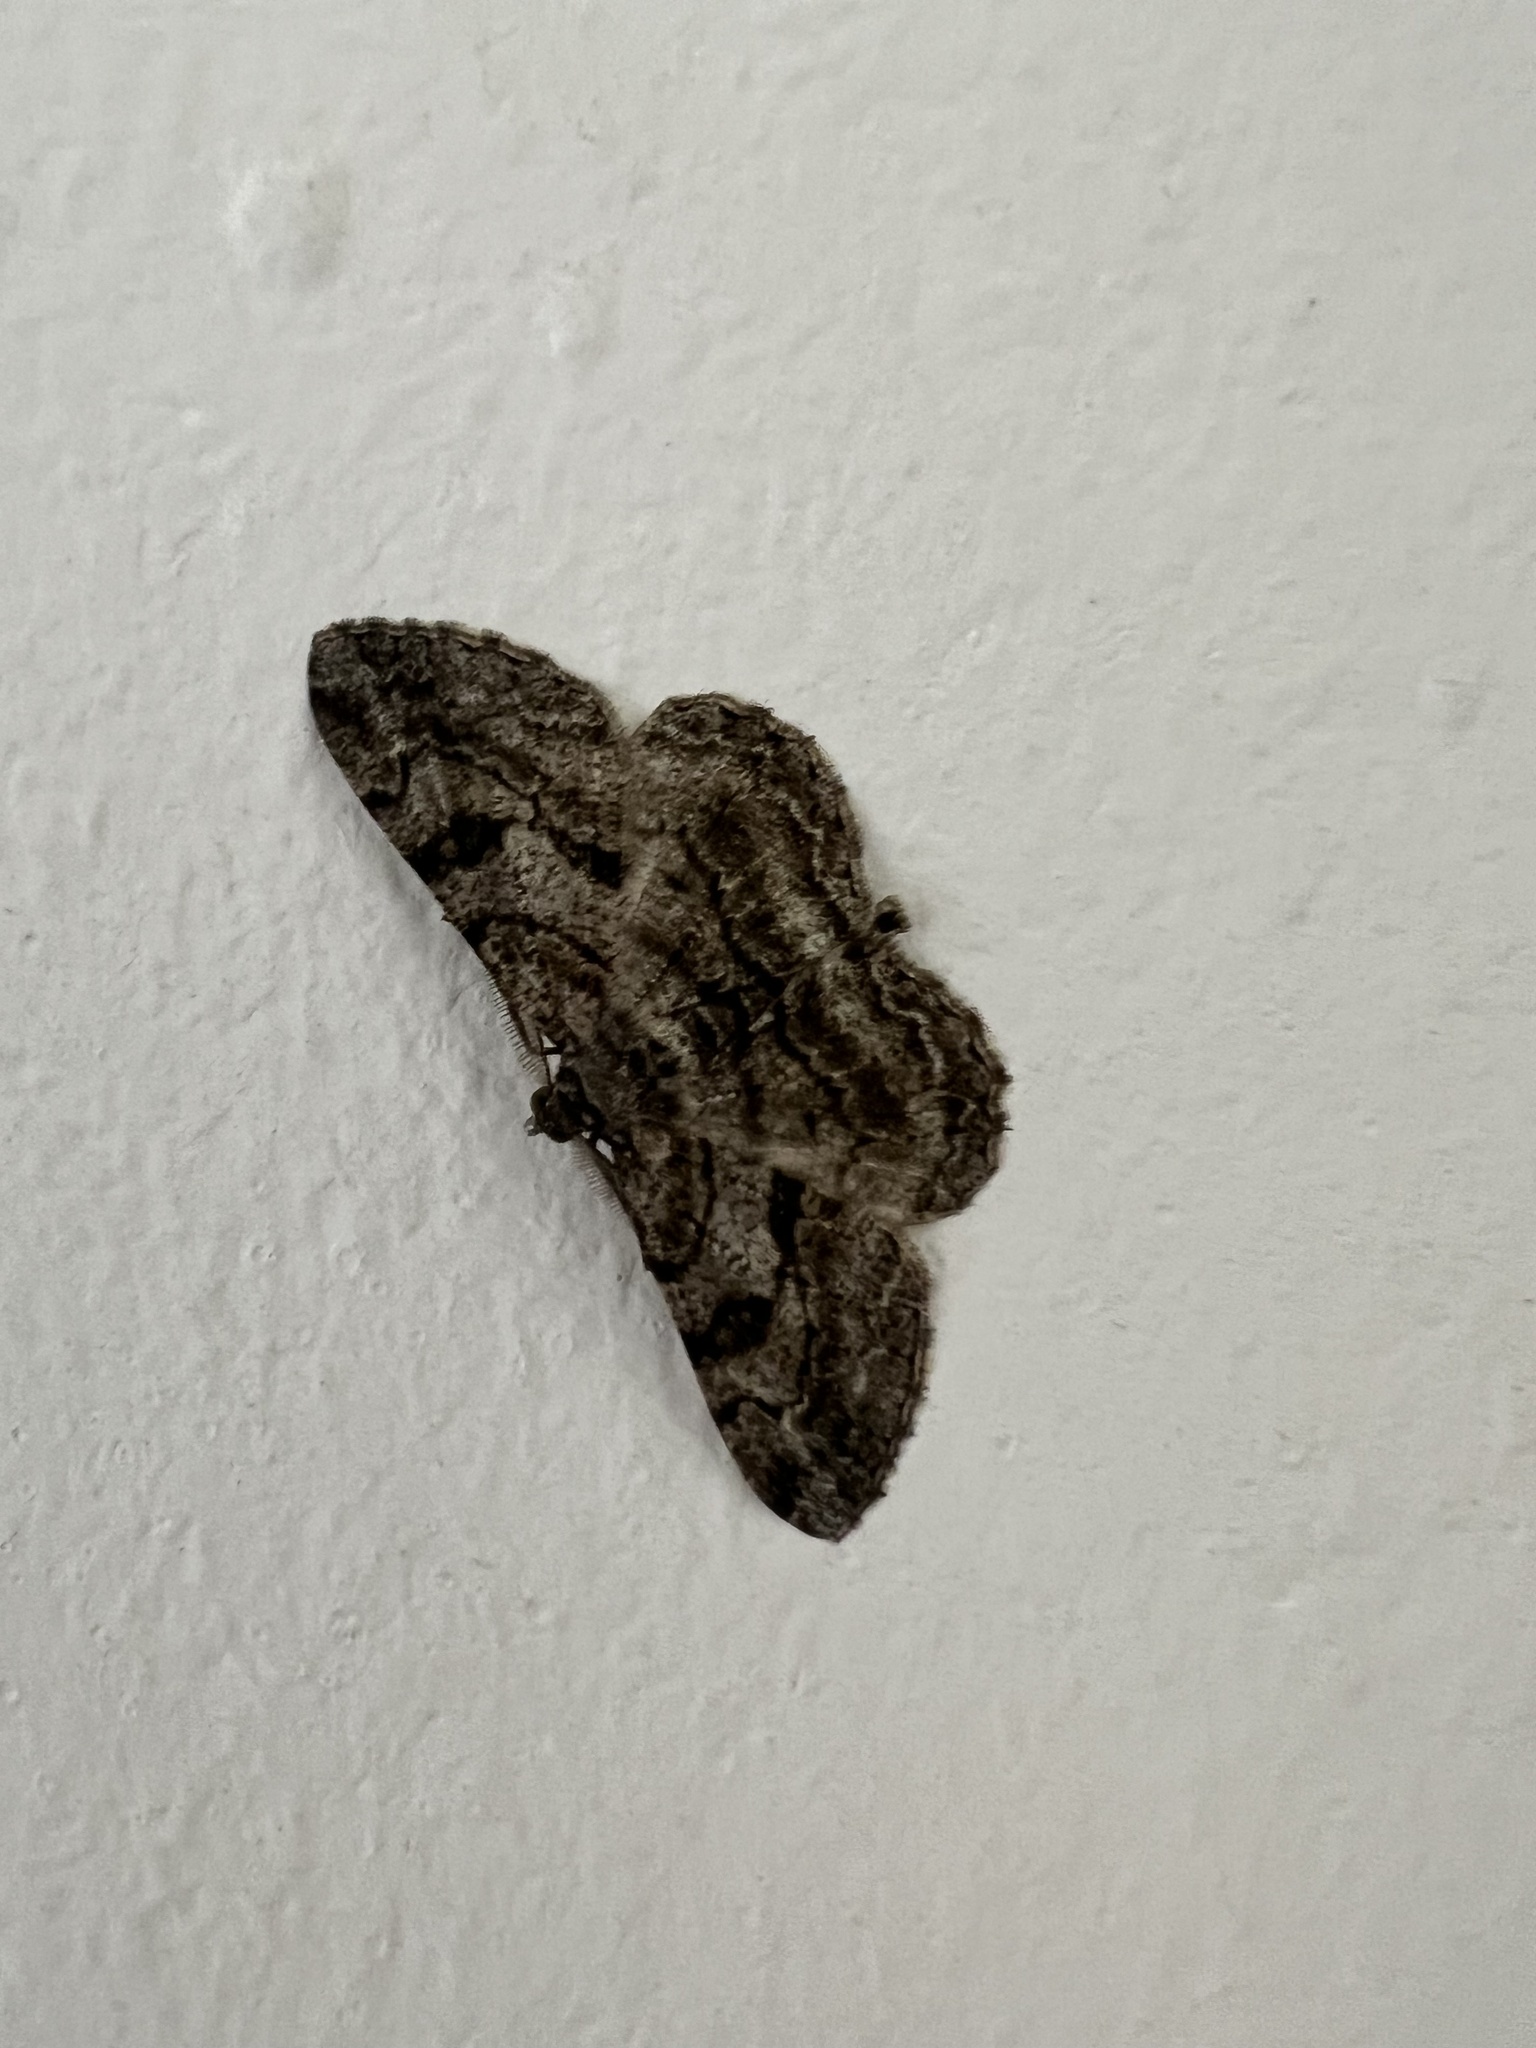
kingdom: Animalia
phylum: Arthropoda
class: Insecta
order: Lepidoptera
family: Geometridae
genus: Peribatodes
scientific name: Peribatodes rhomboidaria
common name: Willow beauty
